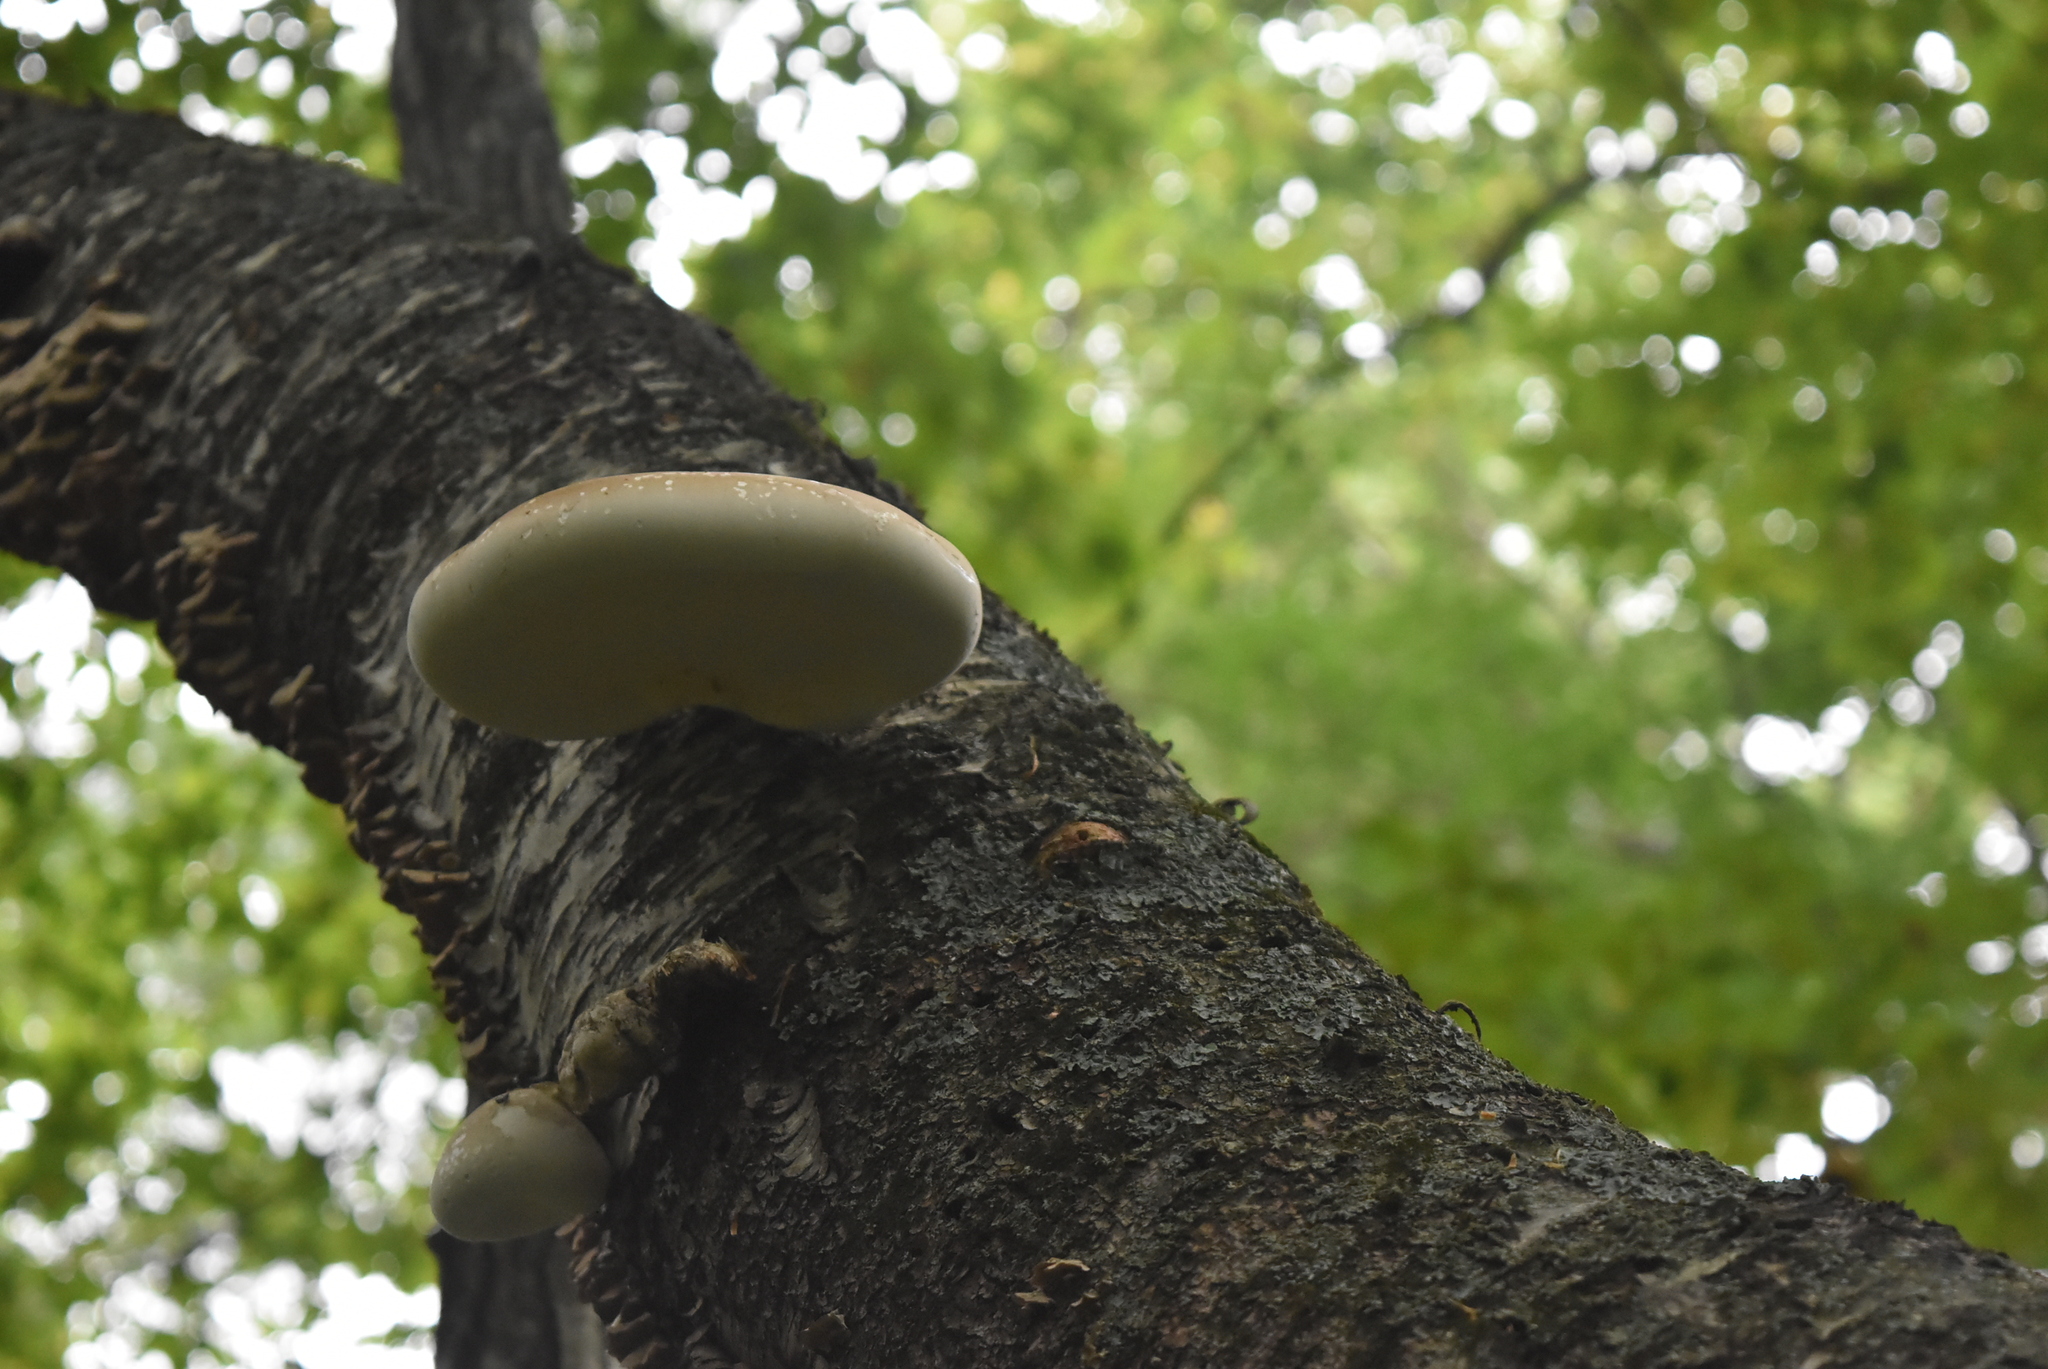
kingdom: Fungi
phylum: Basidiomycota
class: Agaricomycetes
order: Polyporales
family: Fomitopsidaceae
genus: Fomitopsis
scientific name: Fomitopsis betulina
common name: Birch polypore
